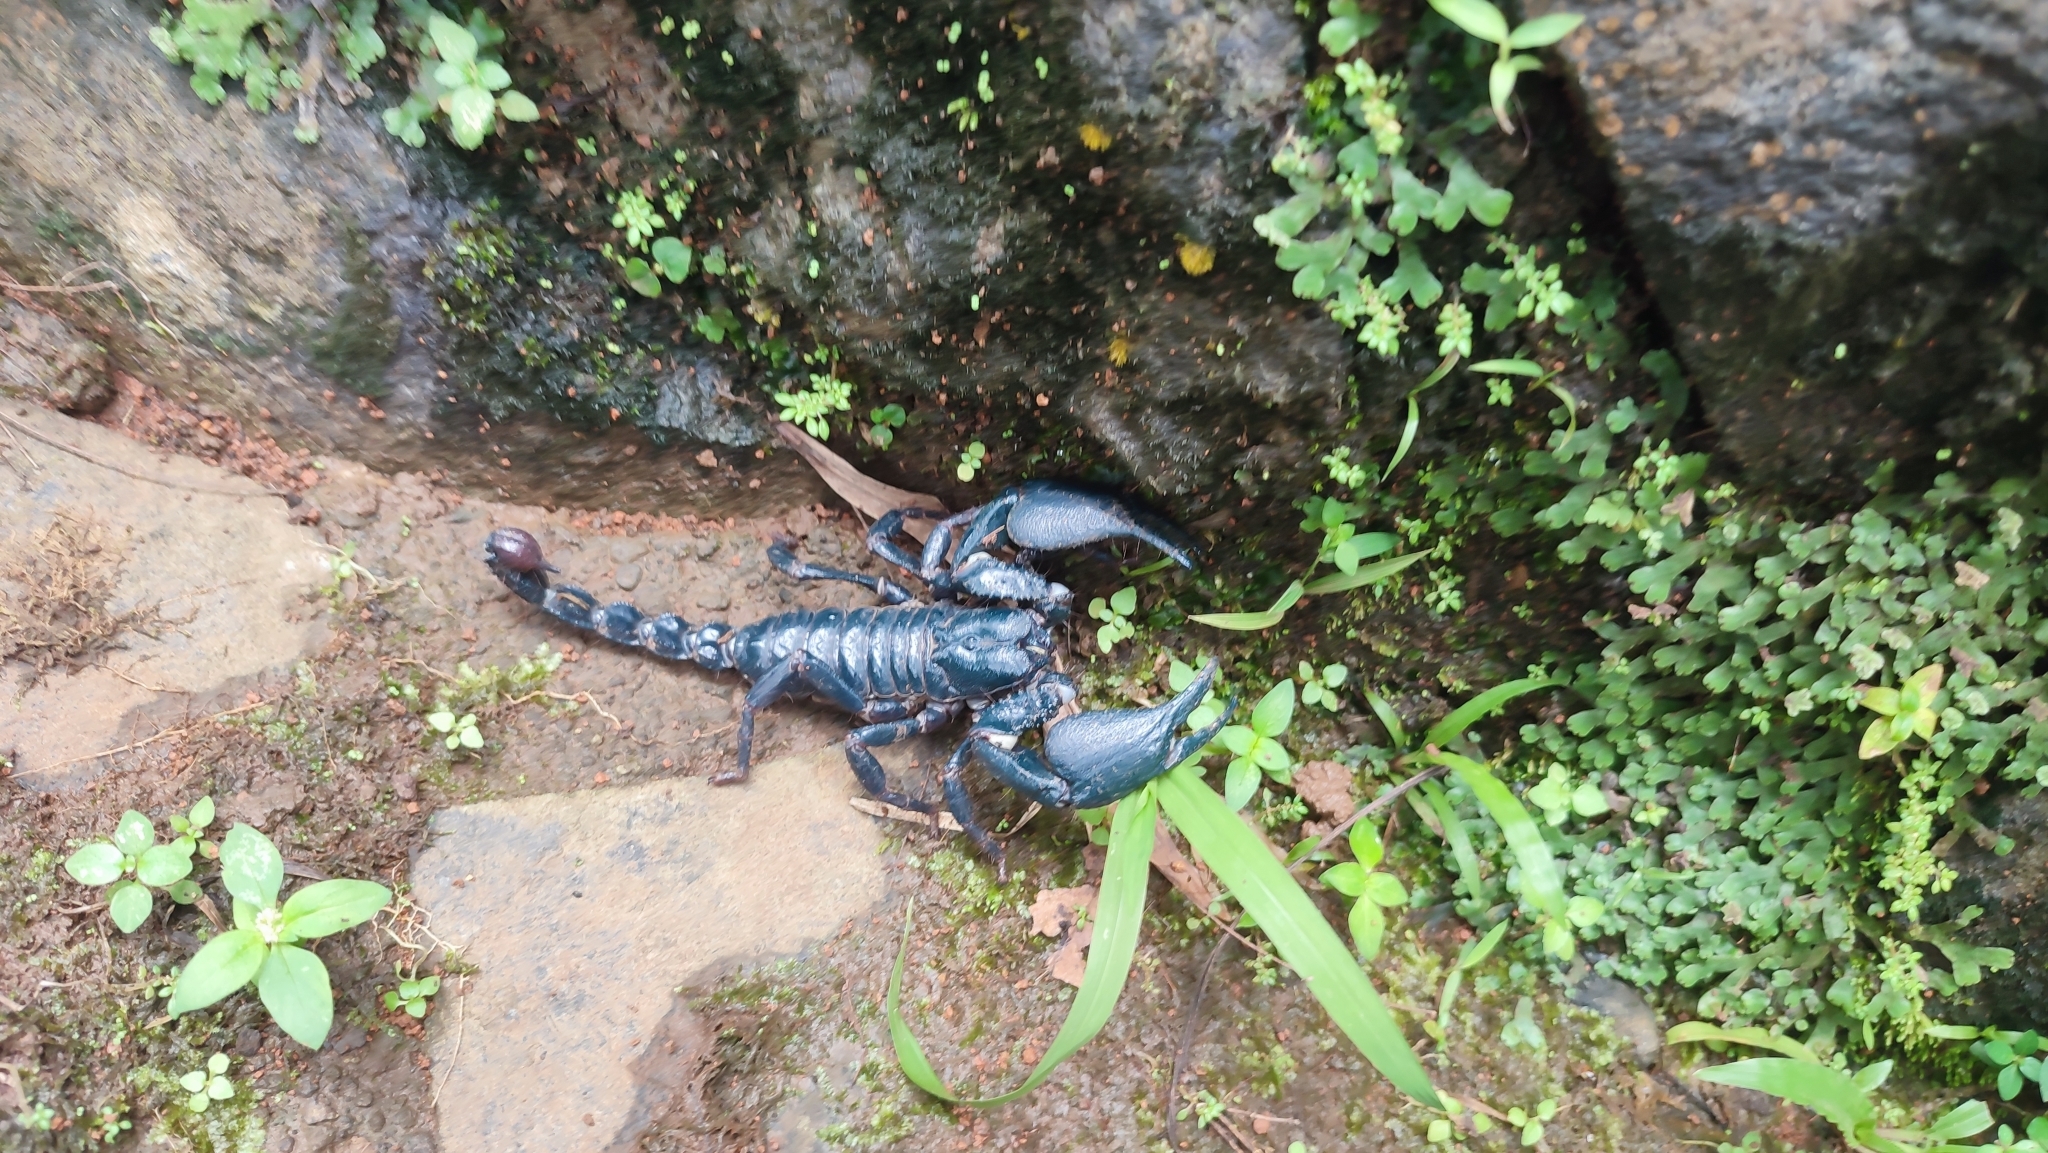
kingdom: Animalia
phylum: Arthropoda
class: Arachnida
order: Scorpiones
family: Scorpionidae
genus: Javanimetrus
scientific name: Javanimetrus cyaneus
